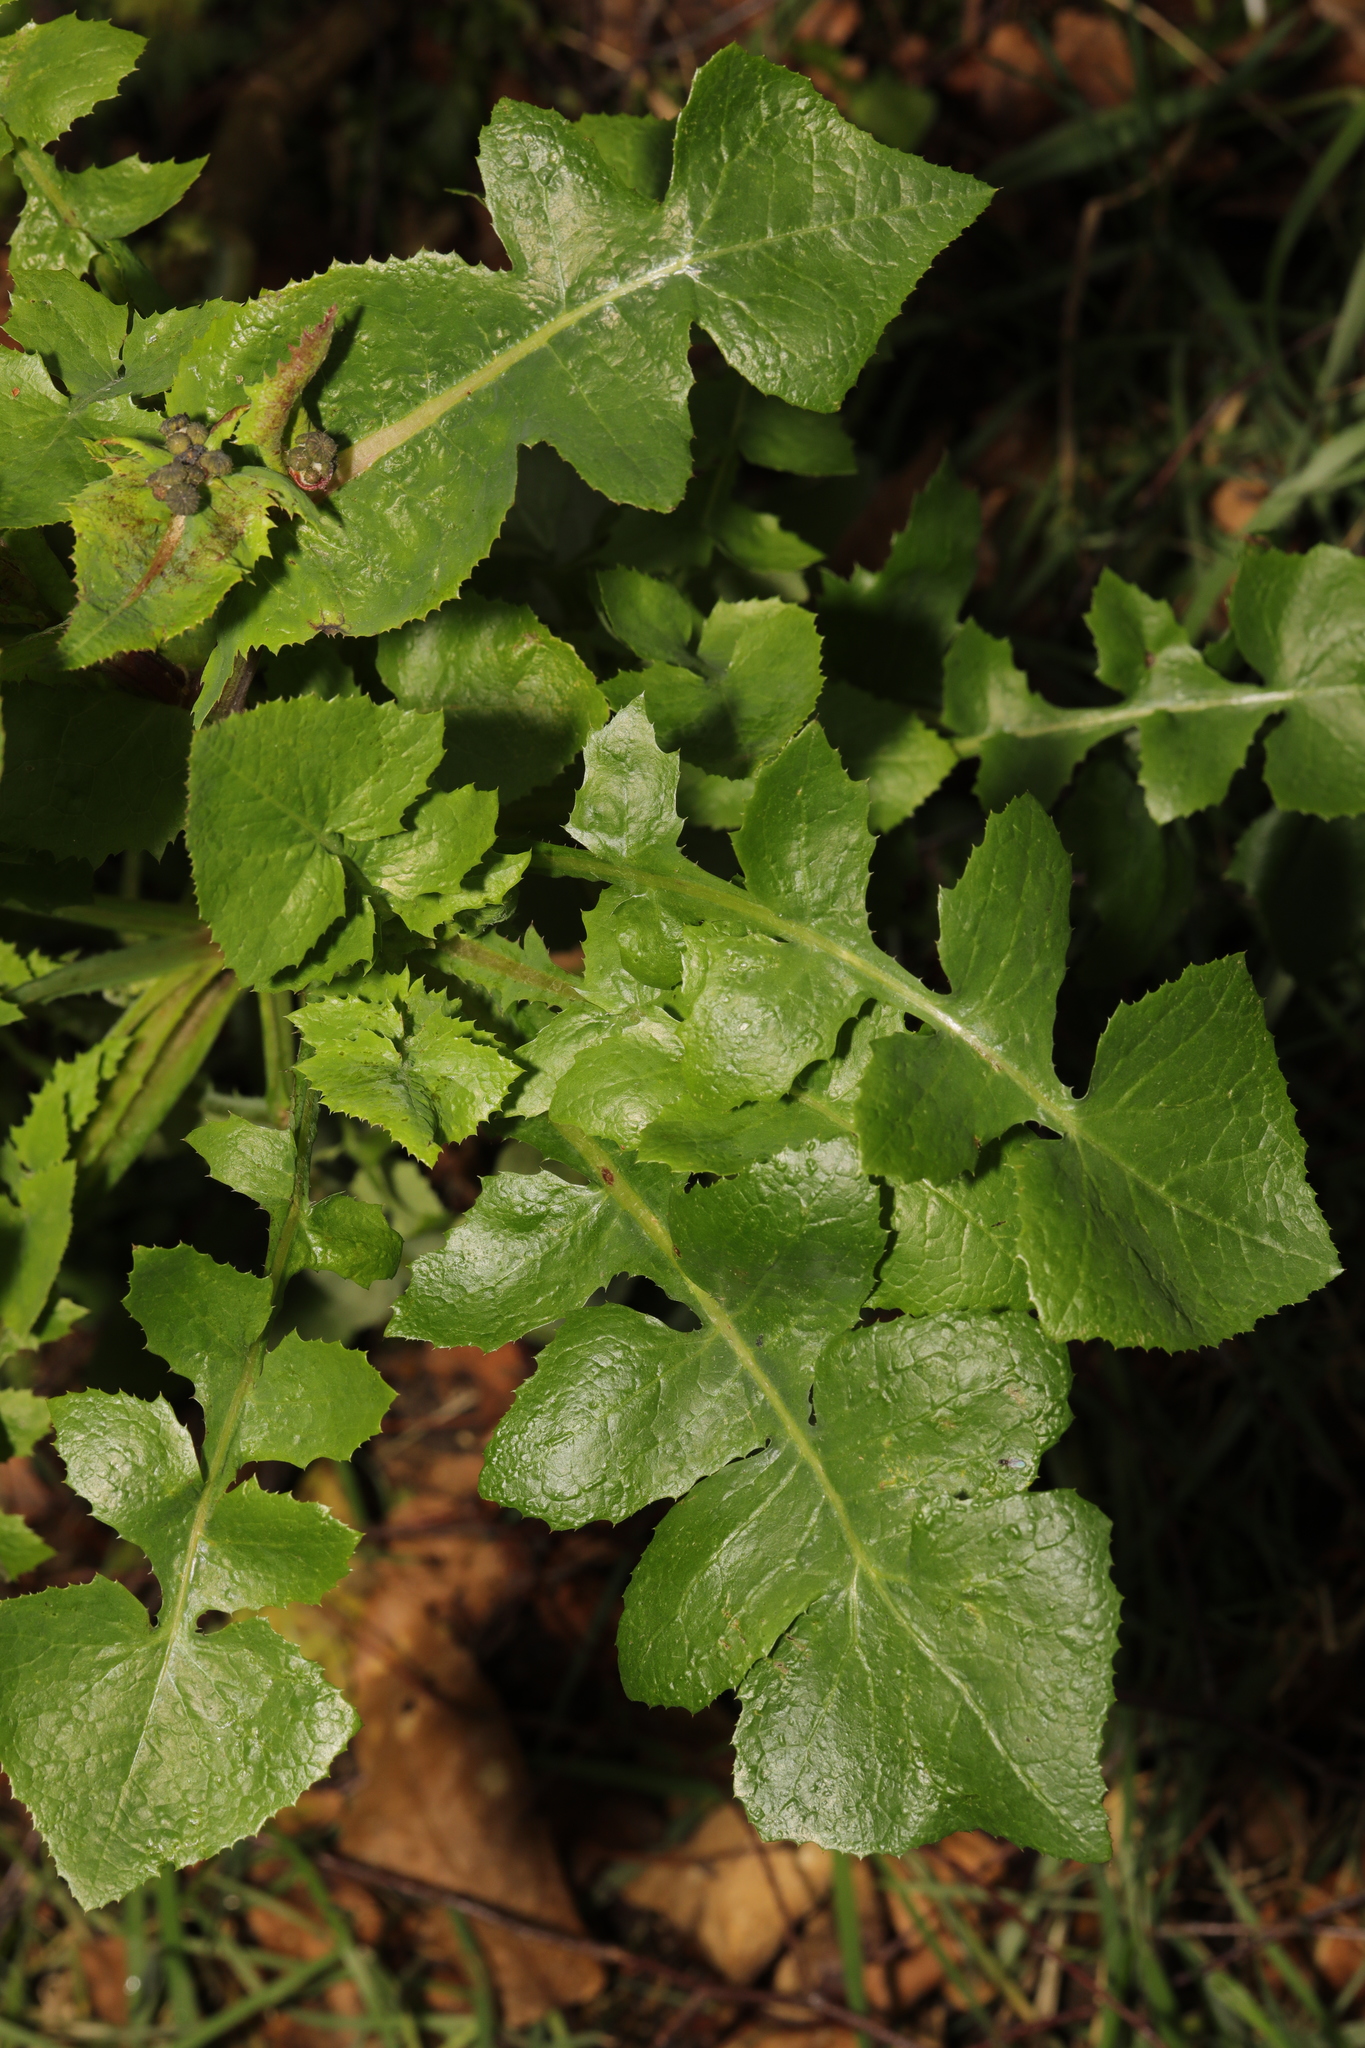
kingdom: Plantae
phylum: Tracheophyta
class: Magnoliopsida
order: Asterales
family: Asteraceae
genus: Sonchus
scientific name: Sonchus oleraceus
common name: Common sowthistle
